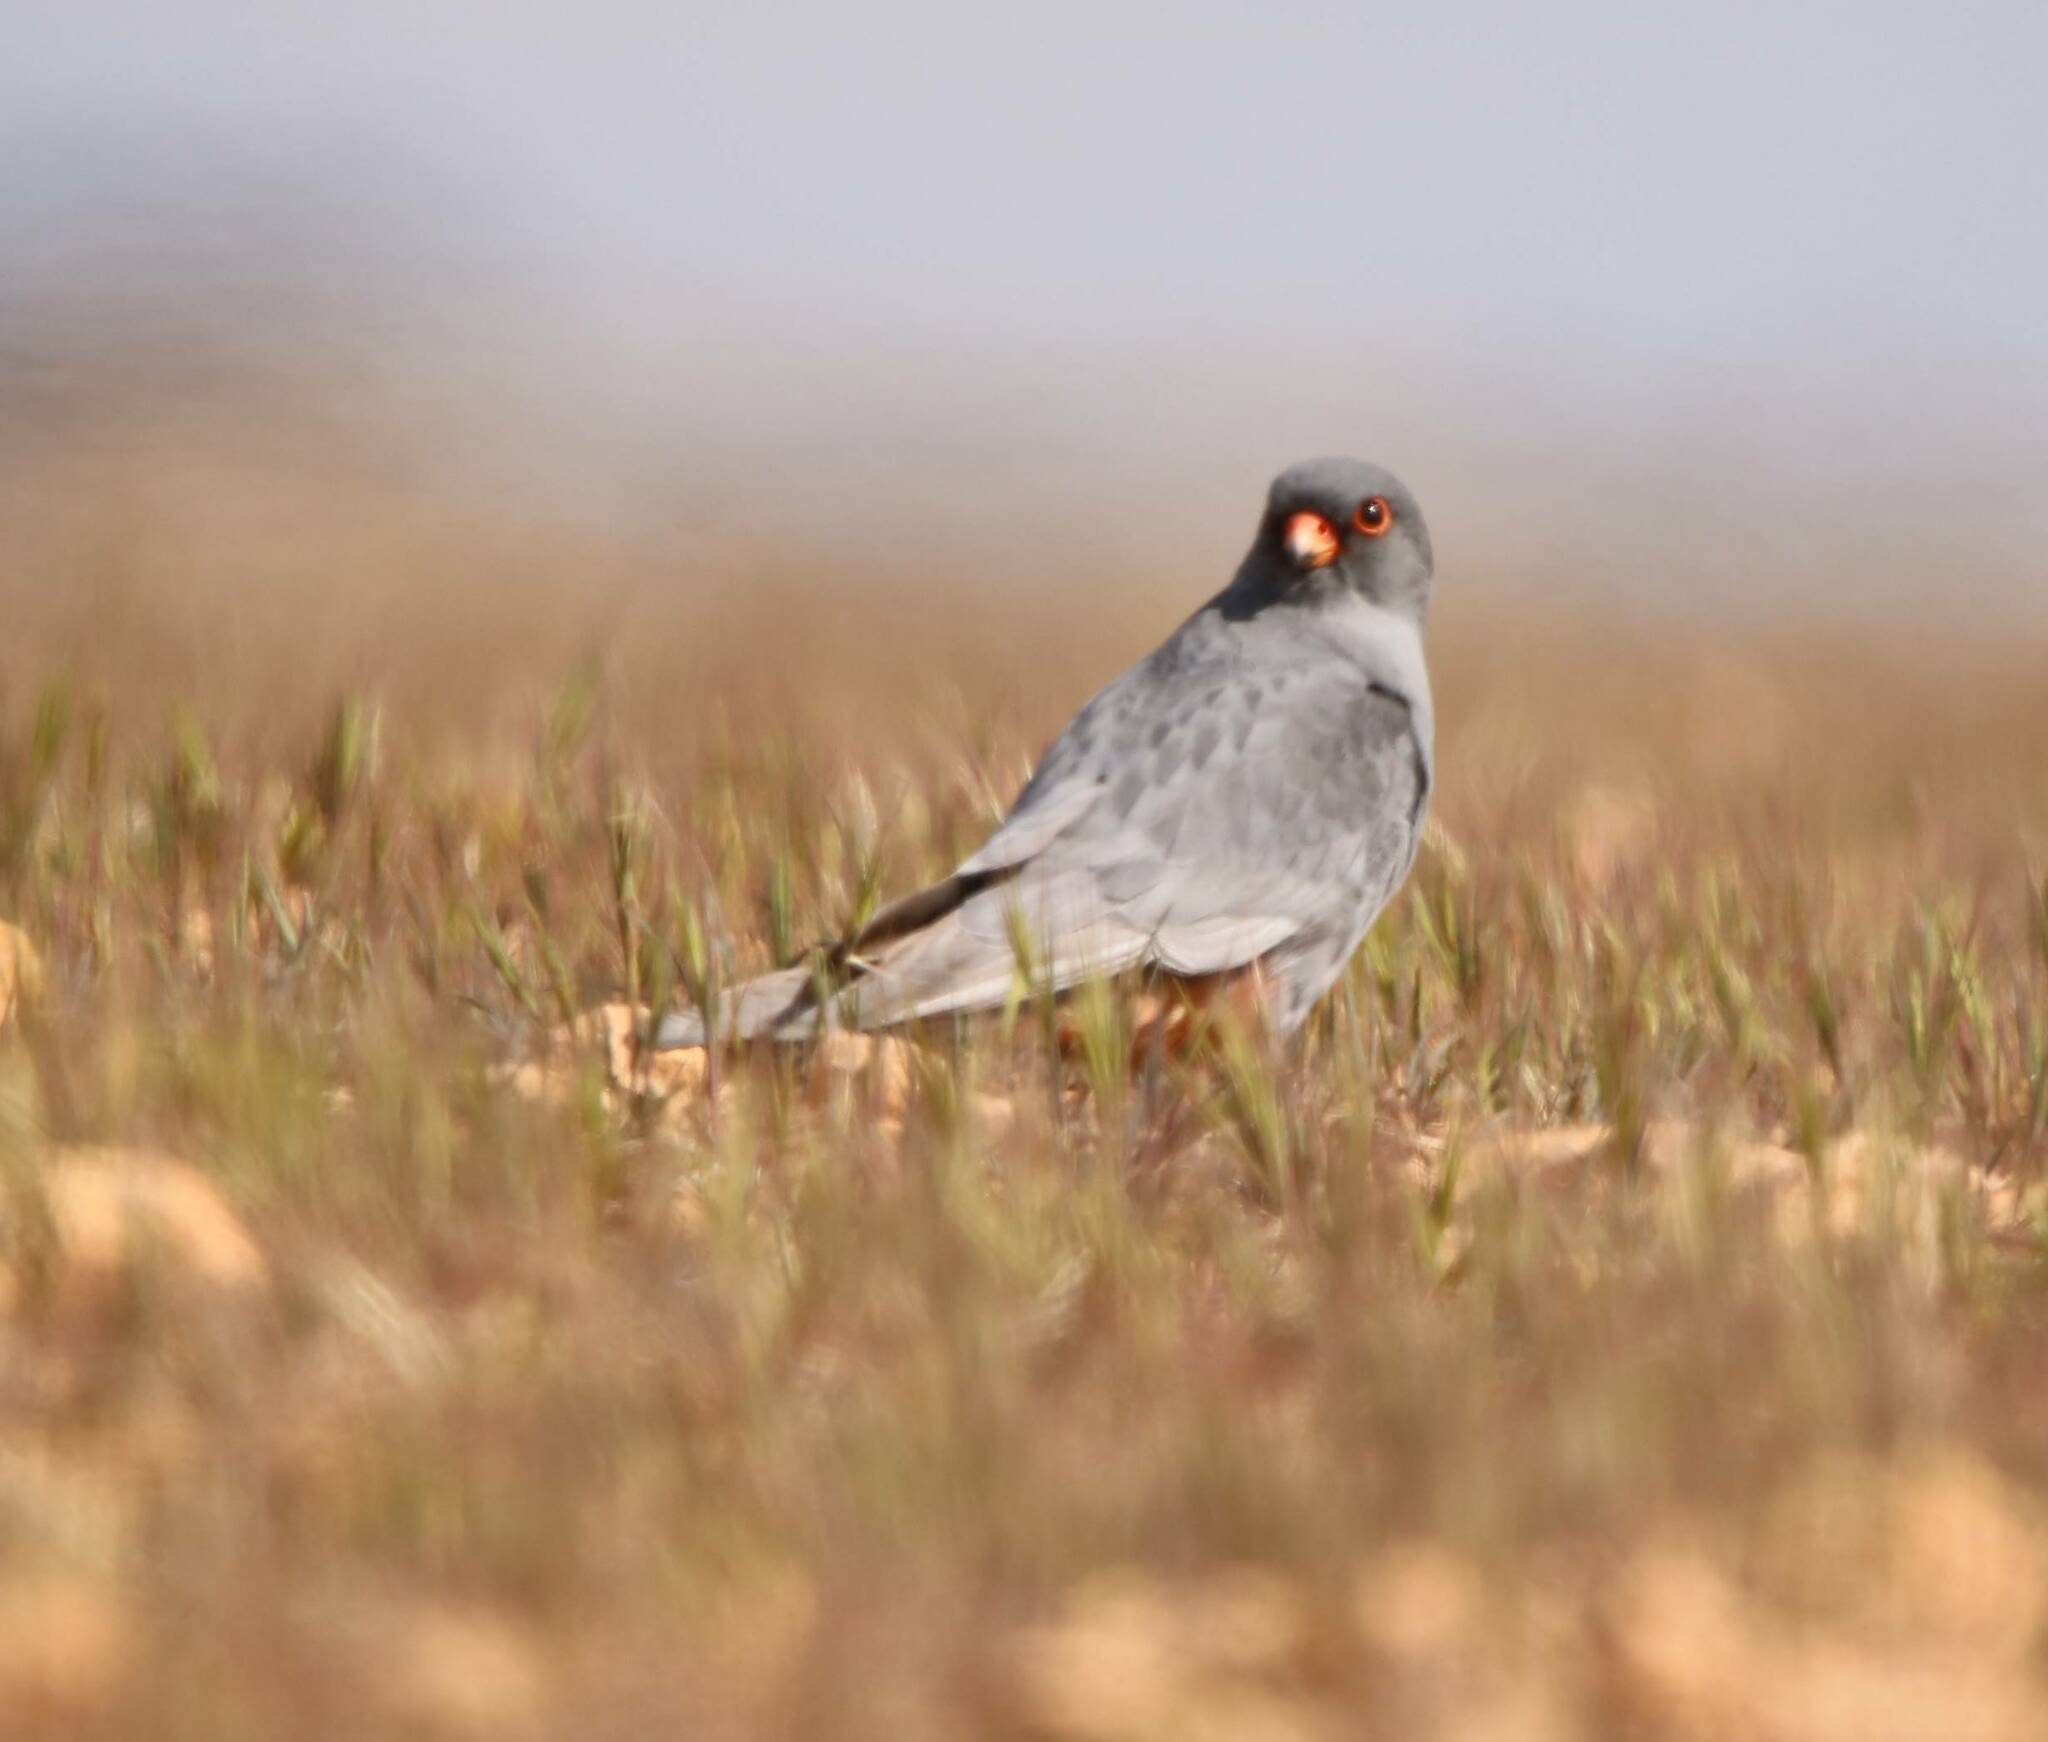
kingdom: Animalia
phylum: Chordata
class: Aves
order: Falconiformes
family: Falconidae
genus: Falco
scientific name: Falco vespertinus
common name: Red-footed falcon
